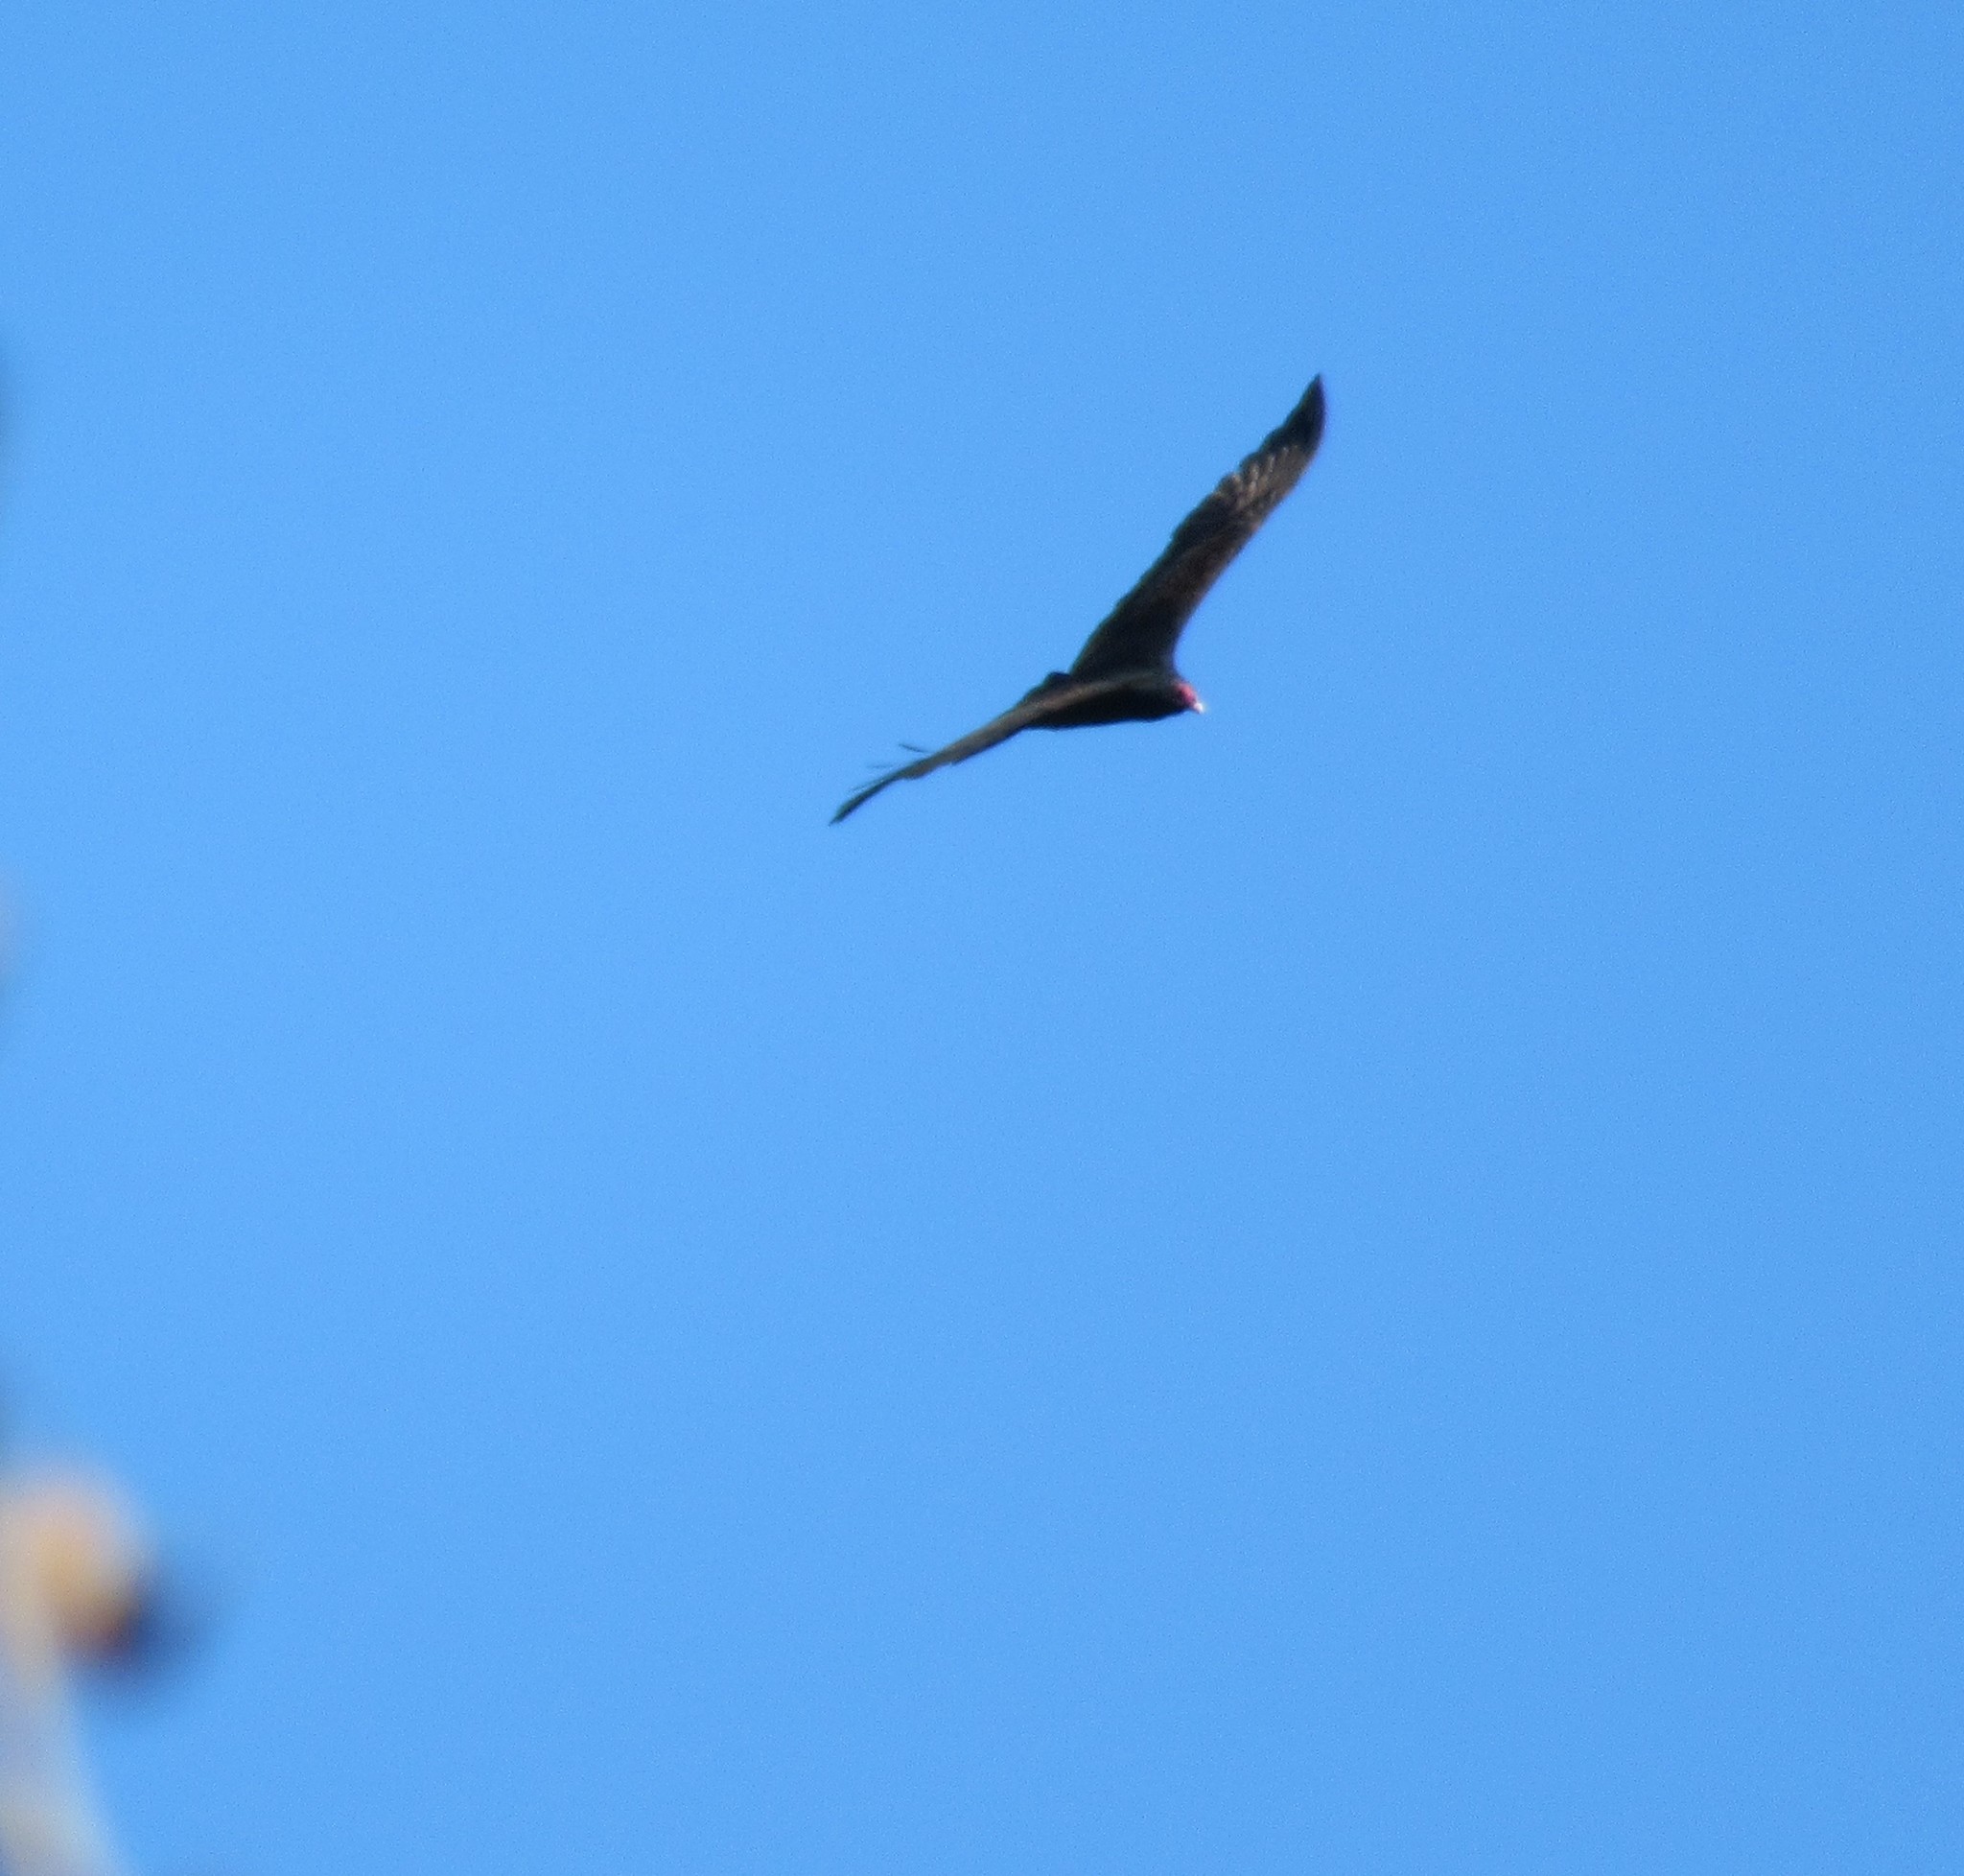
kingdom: Animalia
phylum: Chordata
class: Aves
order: Accipitriformes
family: Cathartidae
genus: Cathartes
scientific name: Cathartes aura
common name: Turkey vulture
